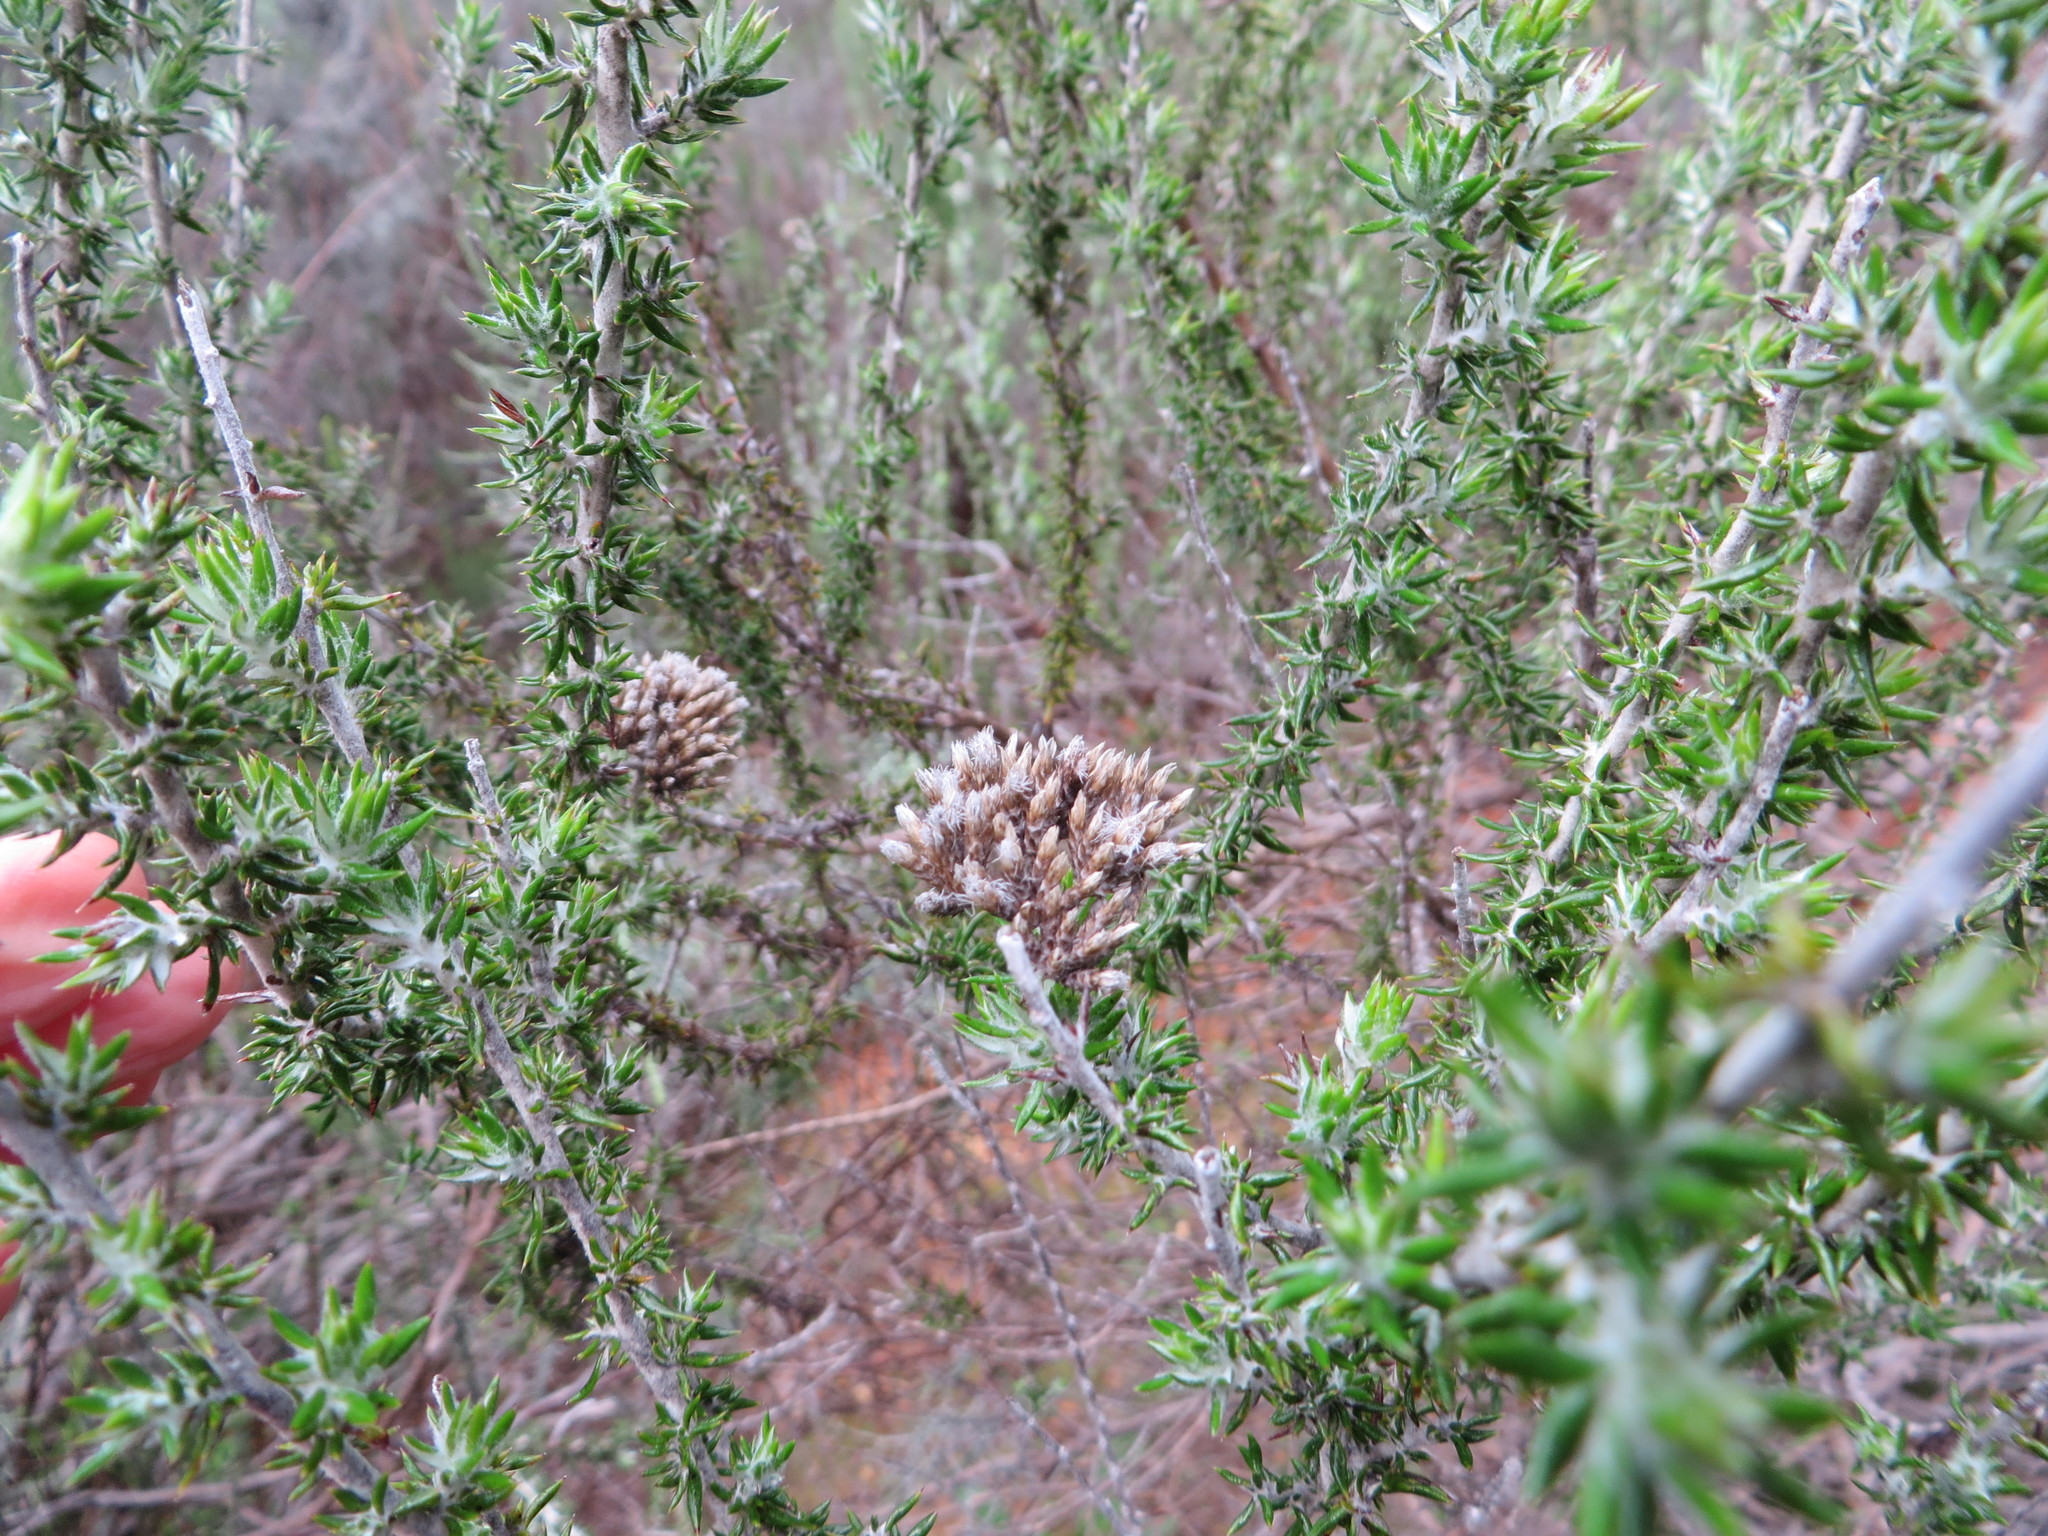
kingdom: Plantae
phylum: Tracheophyta
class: Magnoliopsida
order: Asterales
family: Asteraceae
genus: Metalasia
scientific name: Metalasia densa
